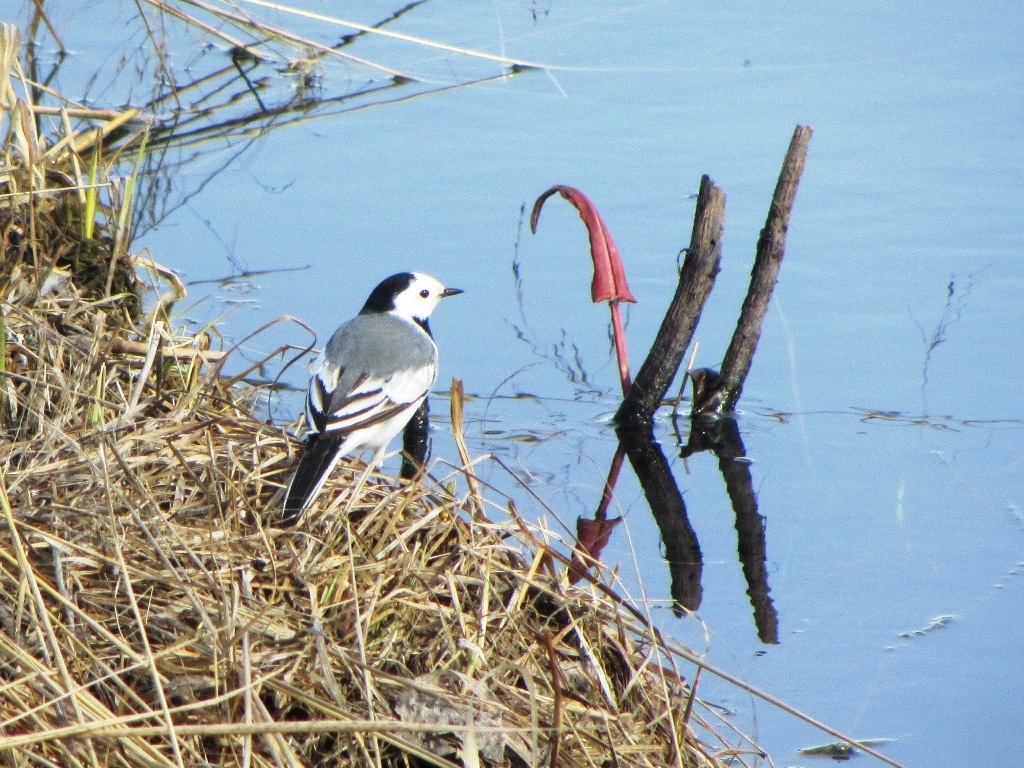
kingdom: Animalia
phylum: Chordata
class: Aves
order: Passeriformes
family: Motacillidae
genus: Motacilla
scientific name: Motacilla alba
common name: White wagtail
